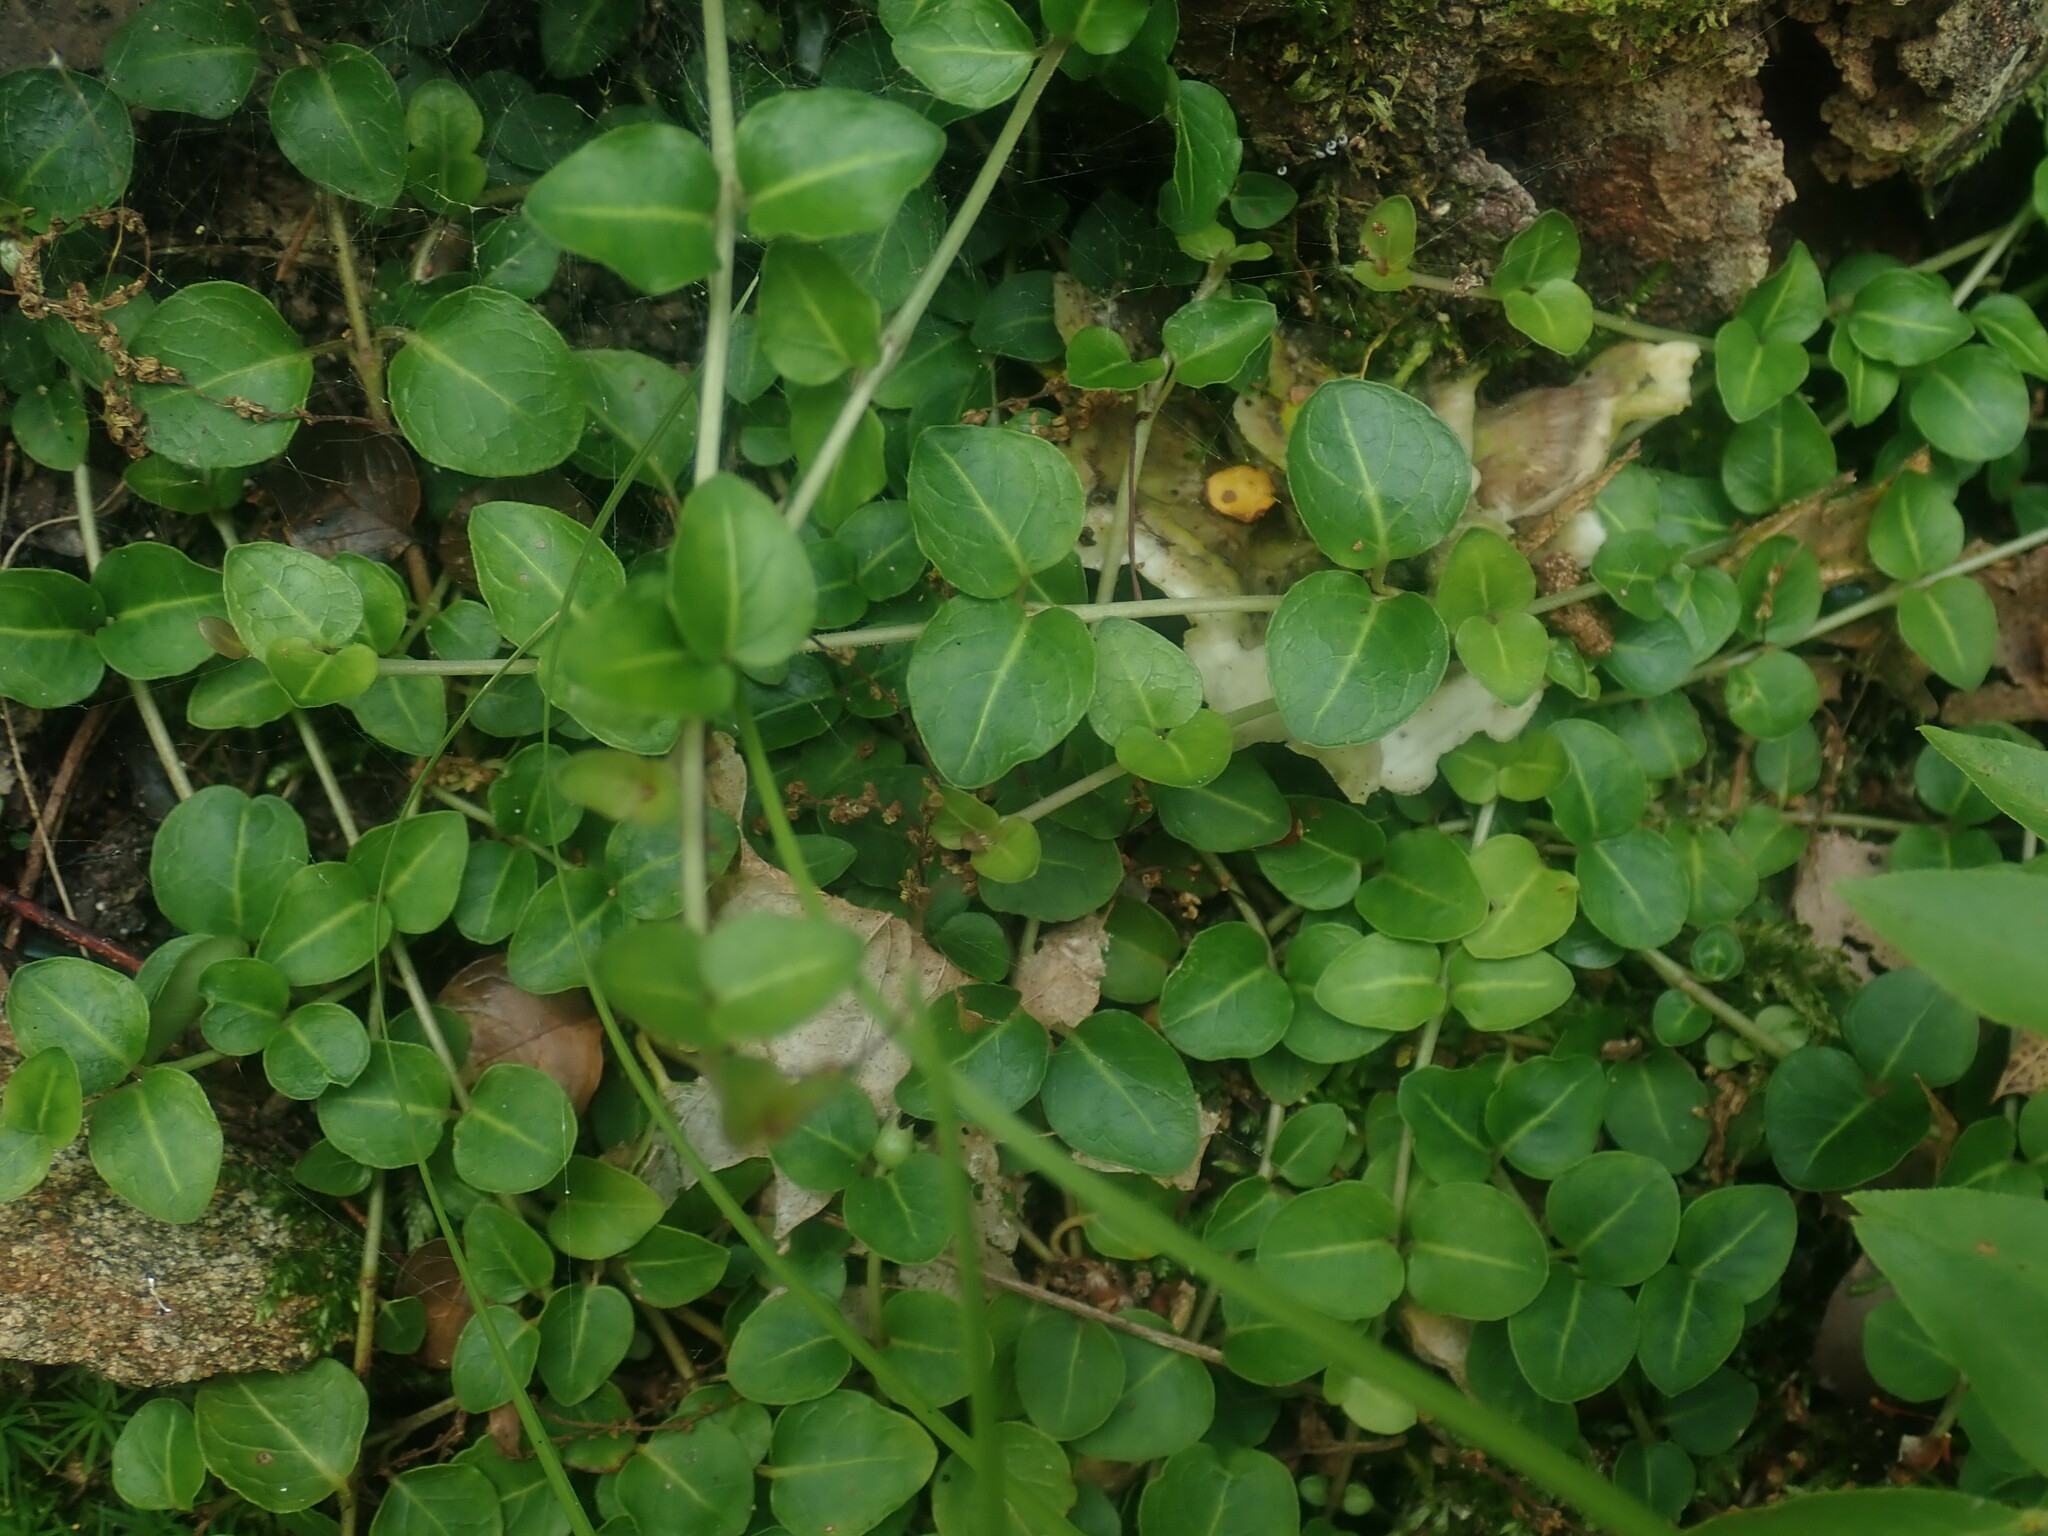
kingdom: Plantae
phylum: Tracheophyta
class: Magnoliopsida
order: Gentianales
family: Rubiaceae
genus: Mitchella
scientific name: Mitchella repens
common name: Partridge-berry
